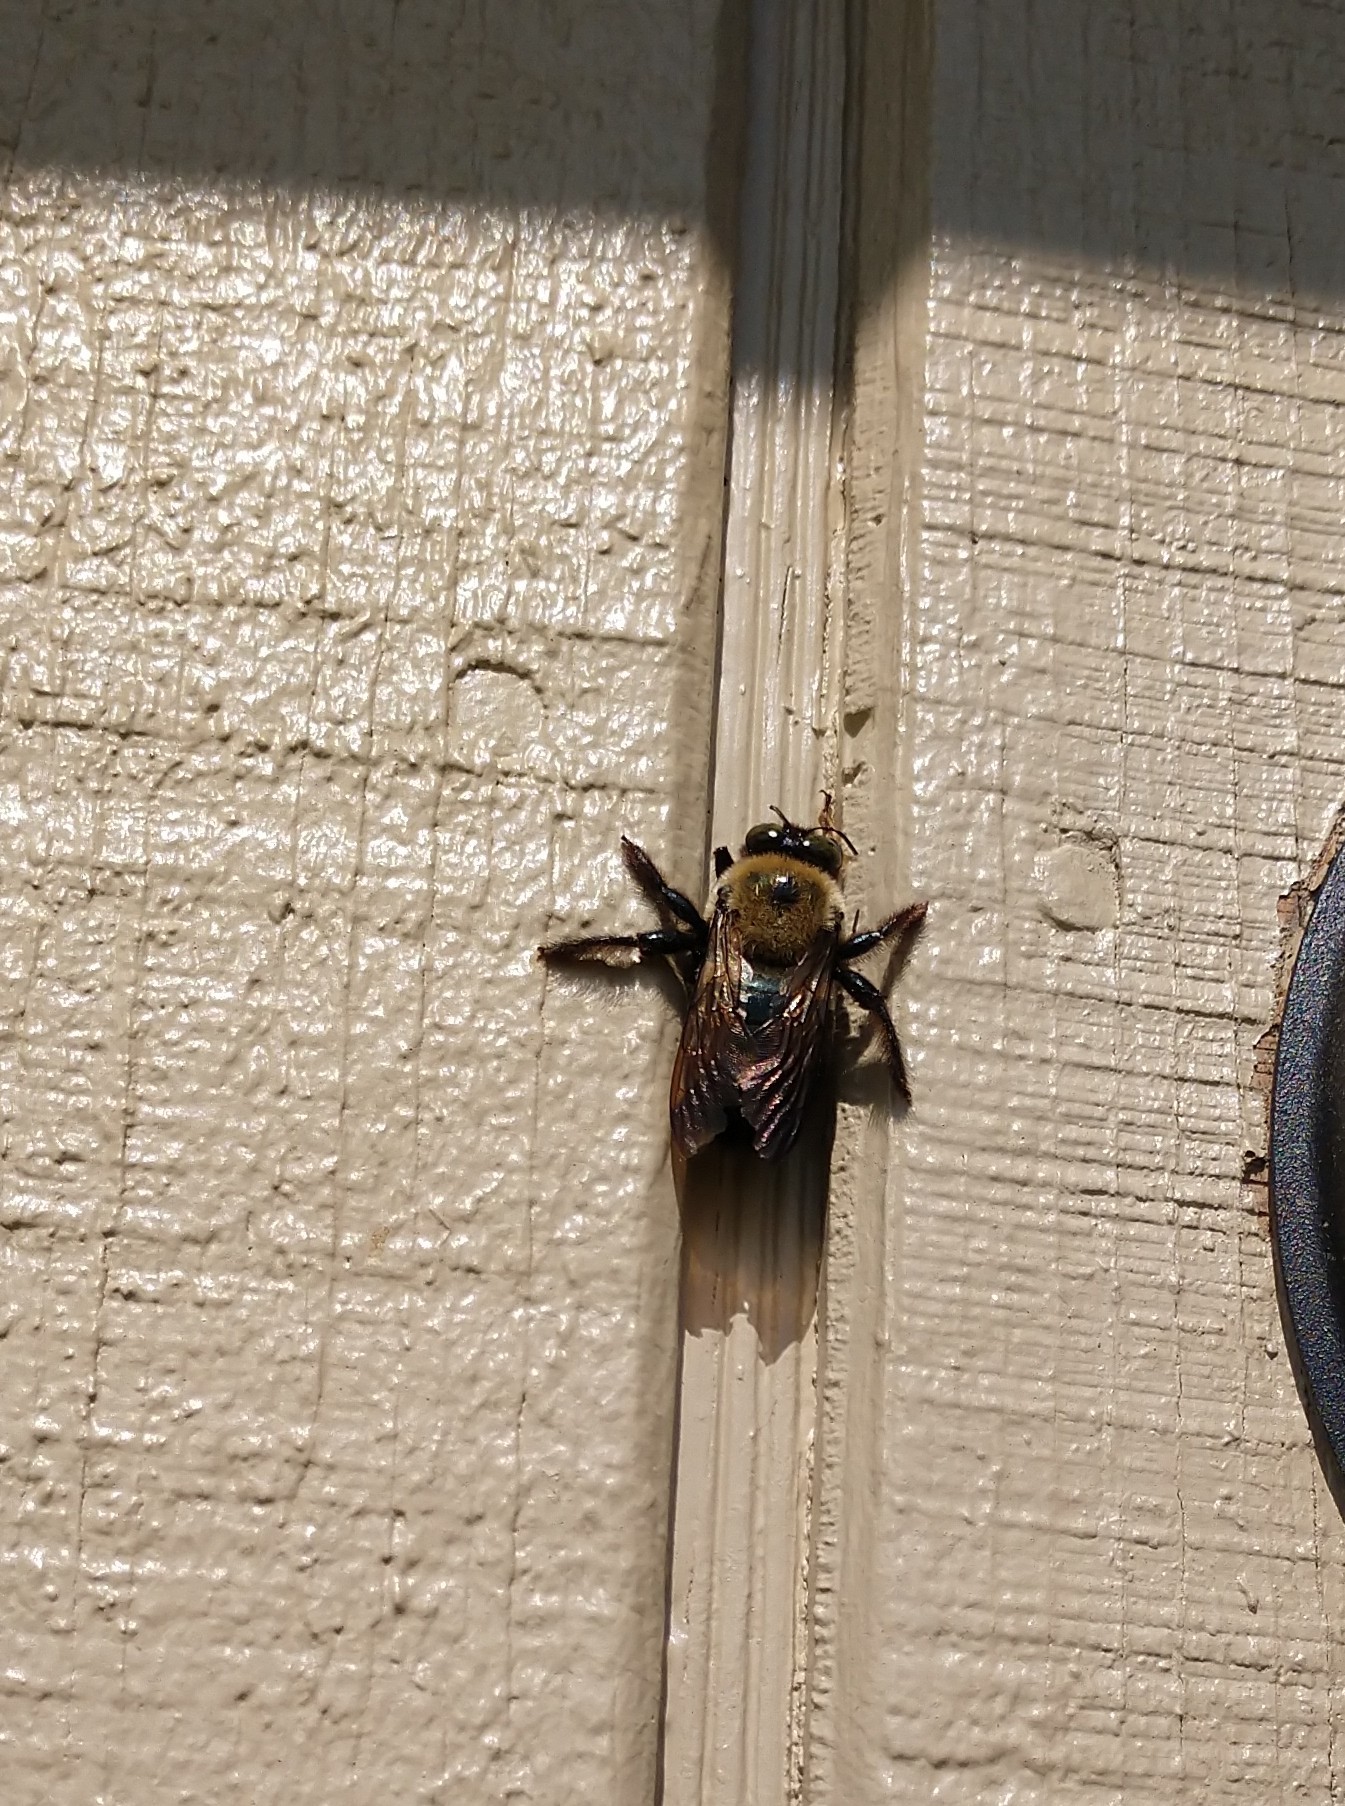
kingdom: Animalia
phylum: Arthropoda
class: Insecta
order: Hymenoptera
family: Apidae
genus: Xylocopa
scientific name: Xylocopa virginica
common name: Carpenter bee
